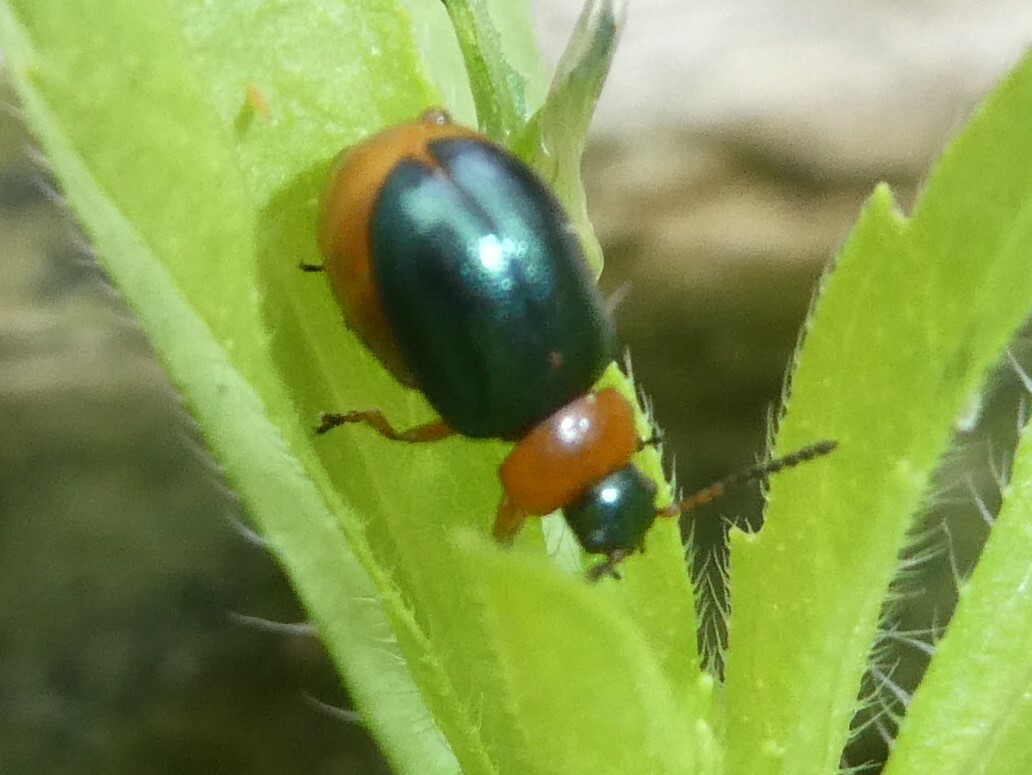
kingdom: Animalia
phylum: Arthropoda
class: Insecta
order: Coleoptera
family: Chrysomelidae
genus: Gastrophysa
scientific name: Gastrophysa polygoni
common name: Knotweed leaf beetle
